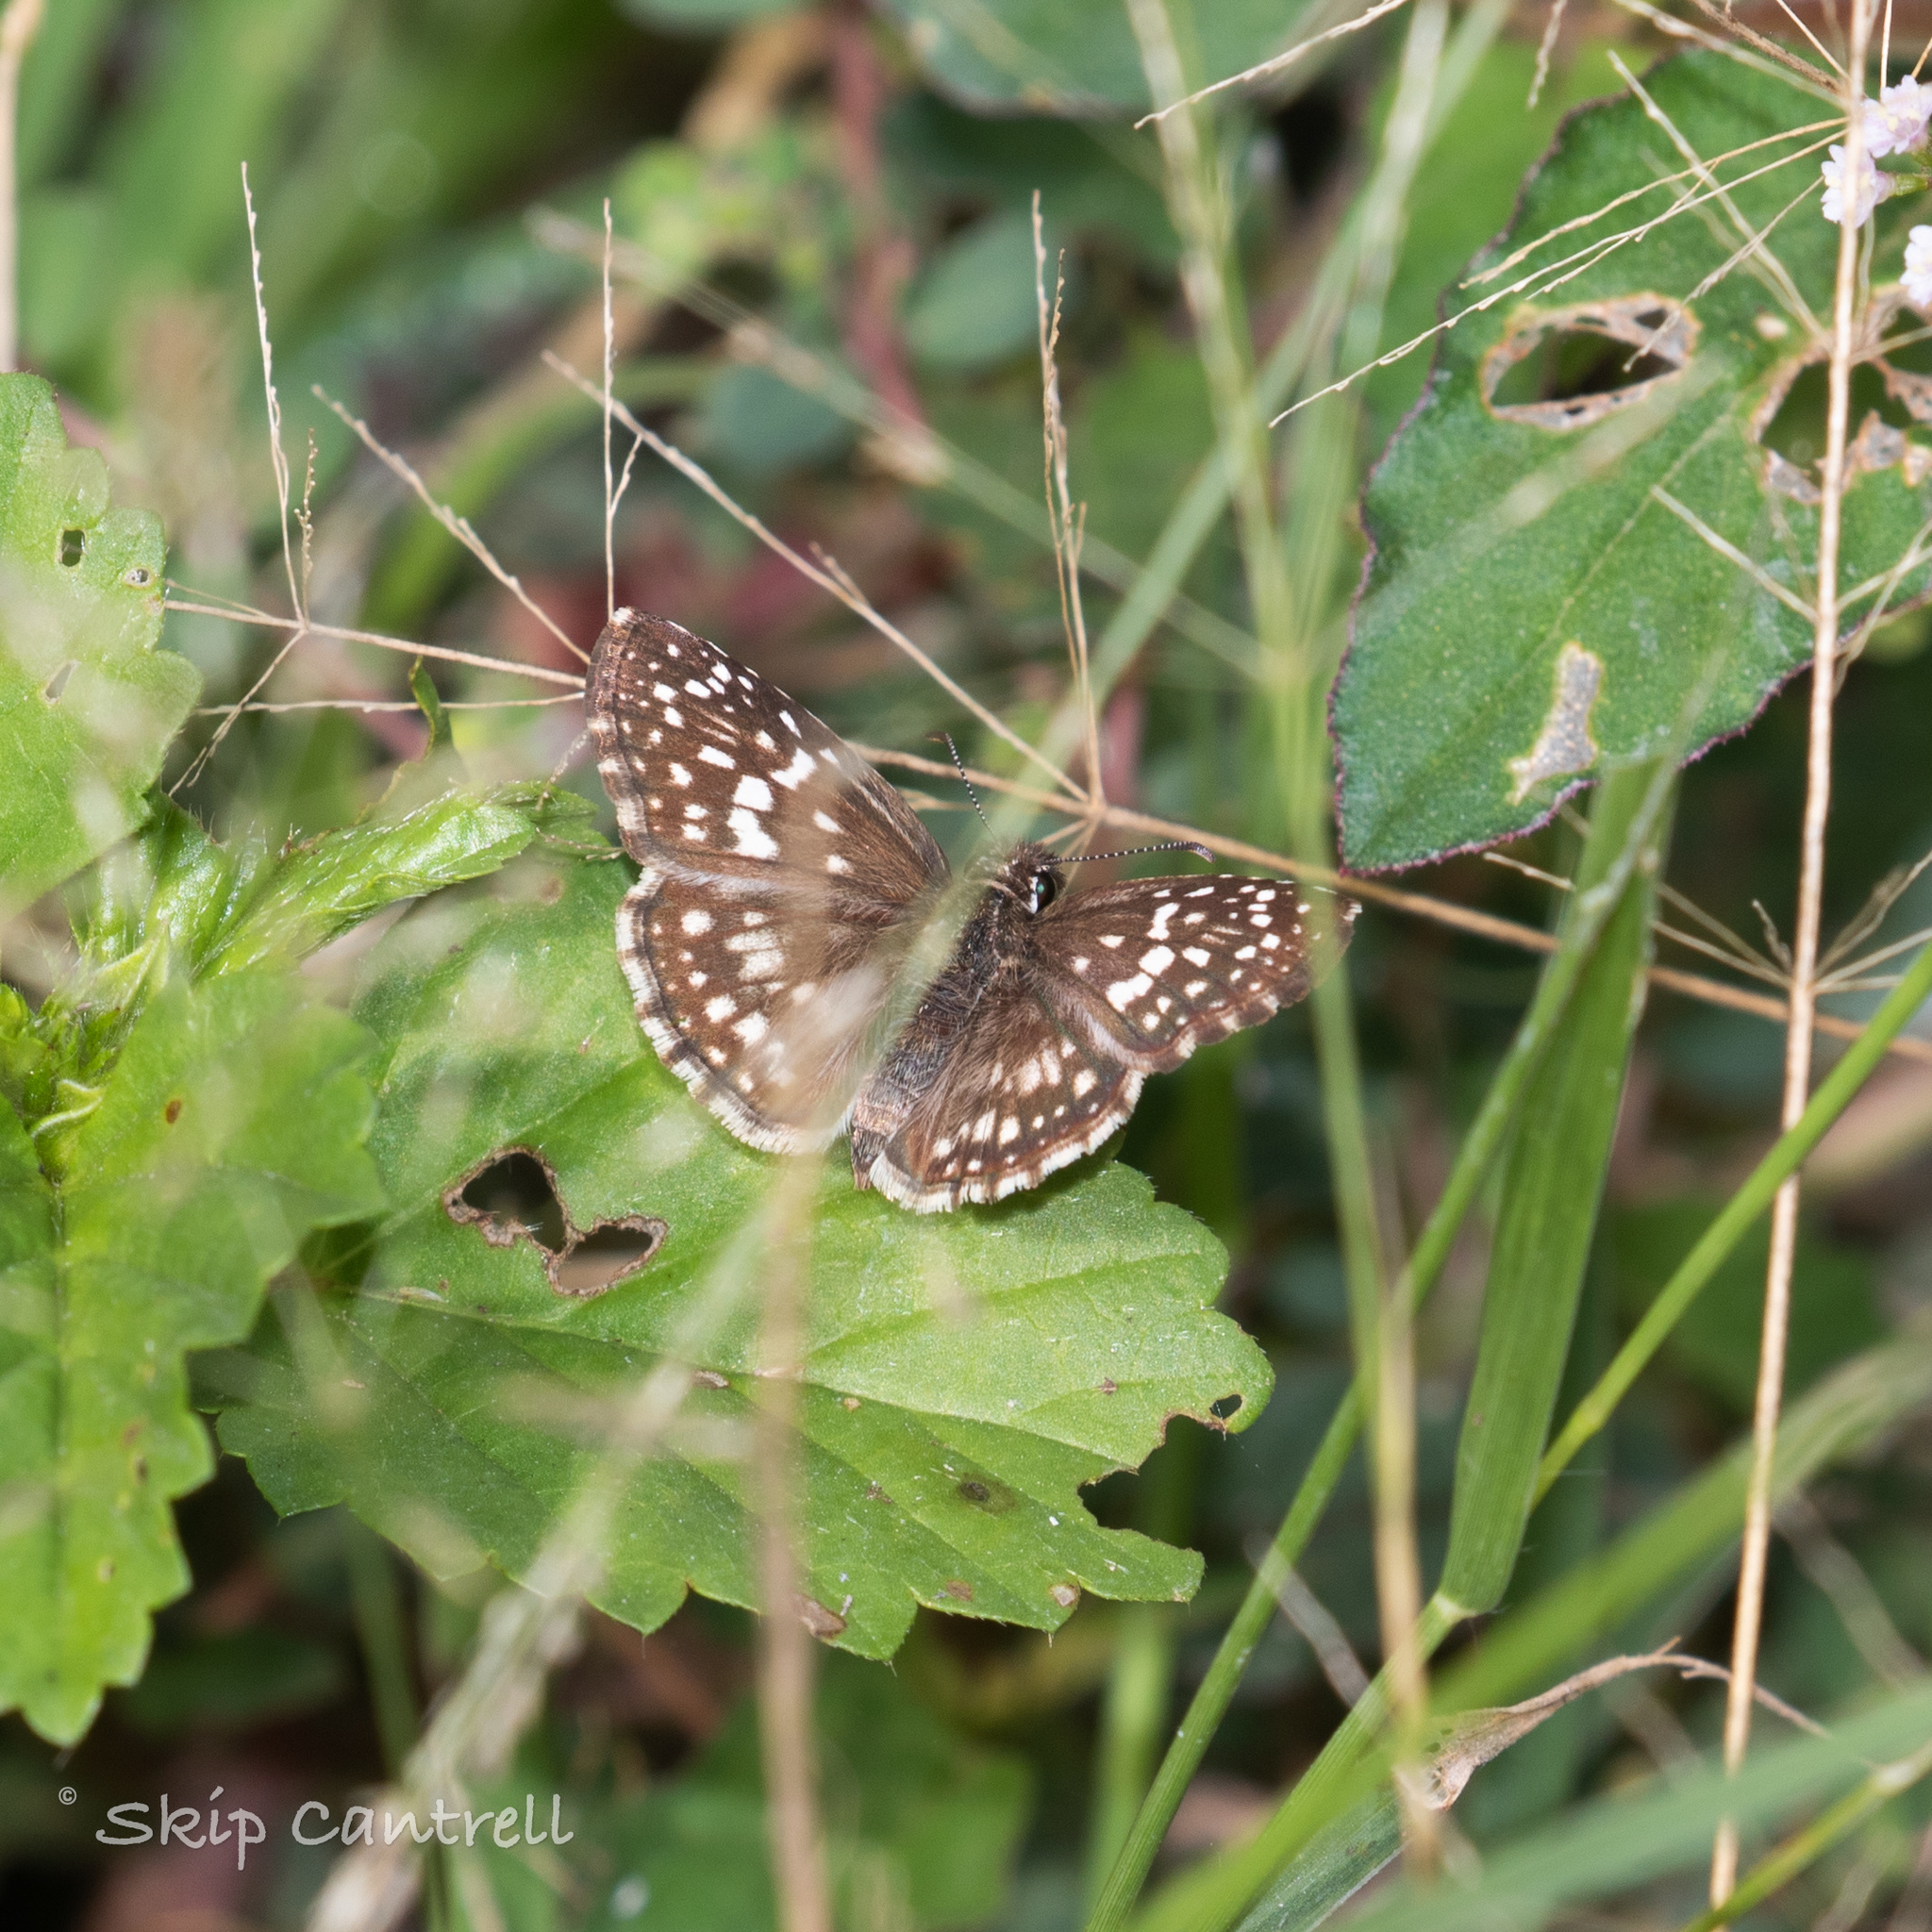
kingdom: Animalia
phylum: Arthropoda
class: Insecta
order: Lepidoptera
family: Hesperiidae
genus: Pyrgus
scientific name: Pyrgus oileus
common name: Tropical checkered-skipper
